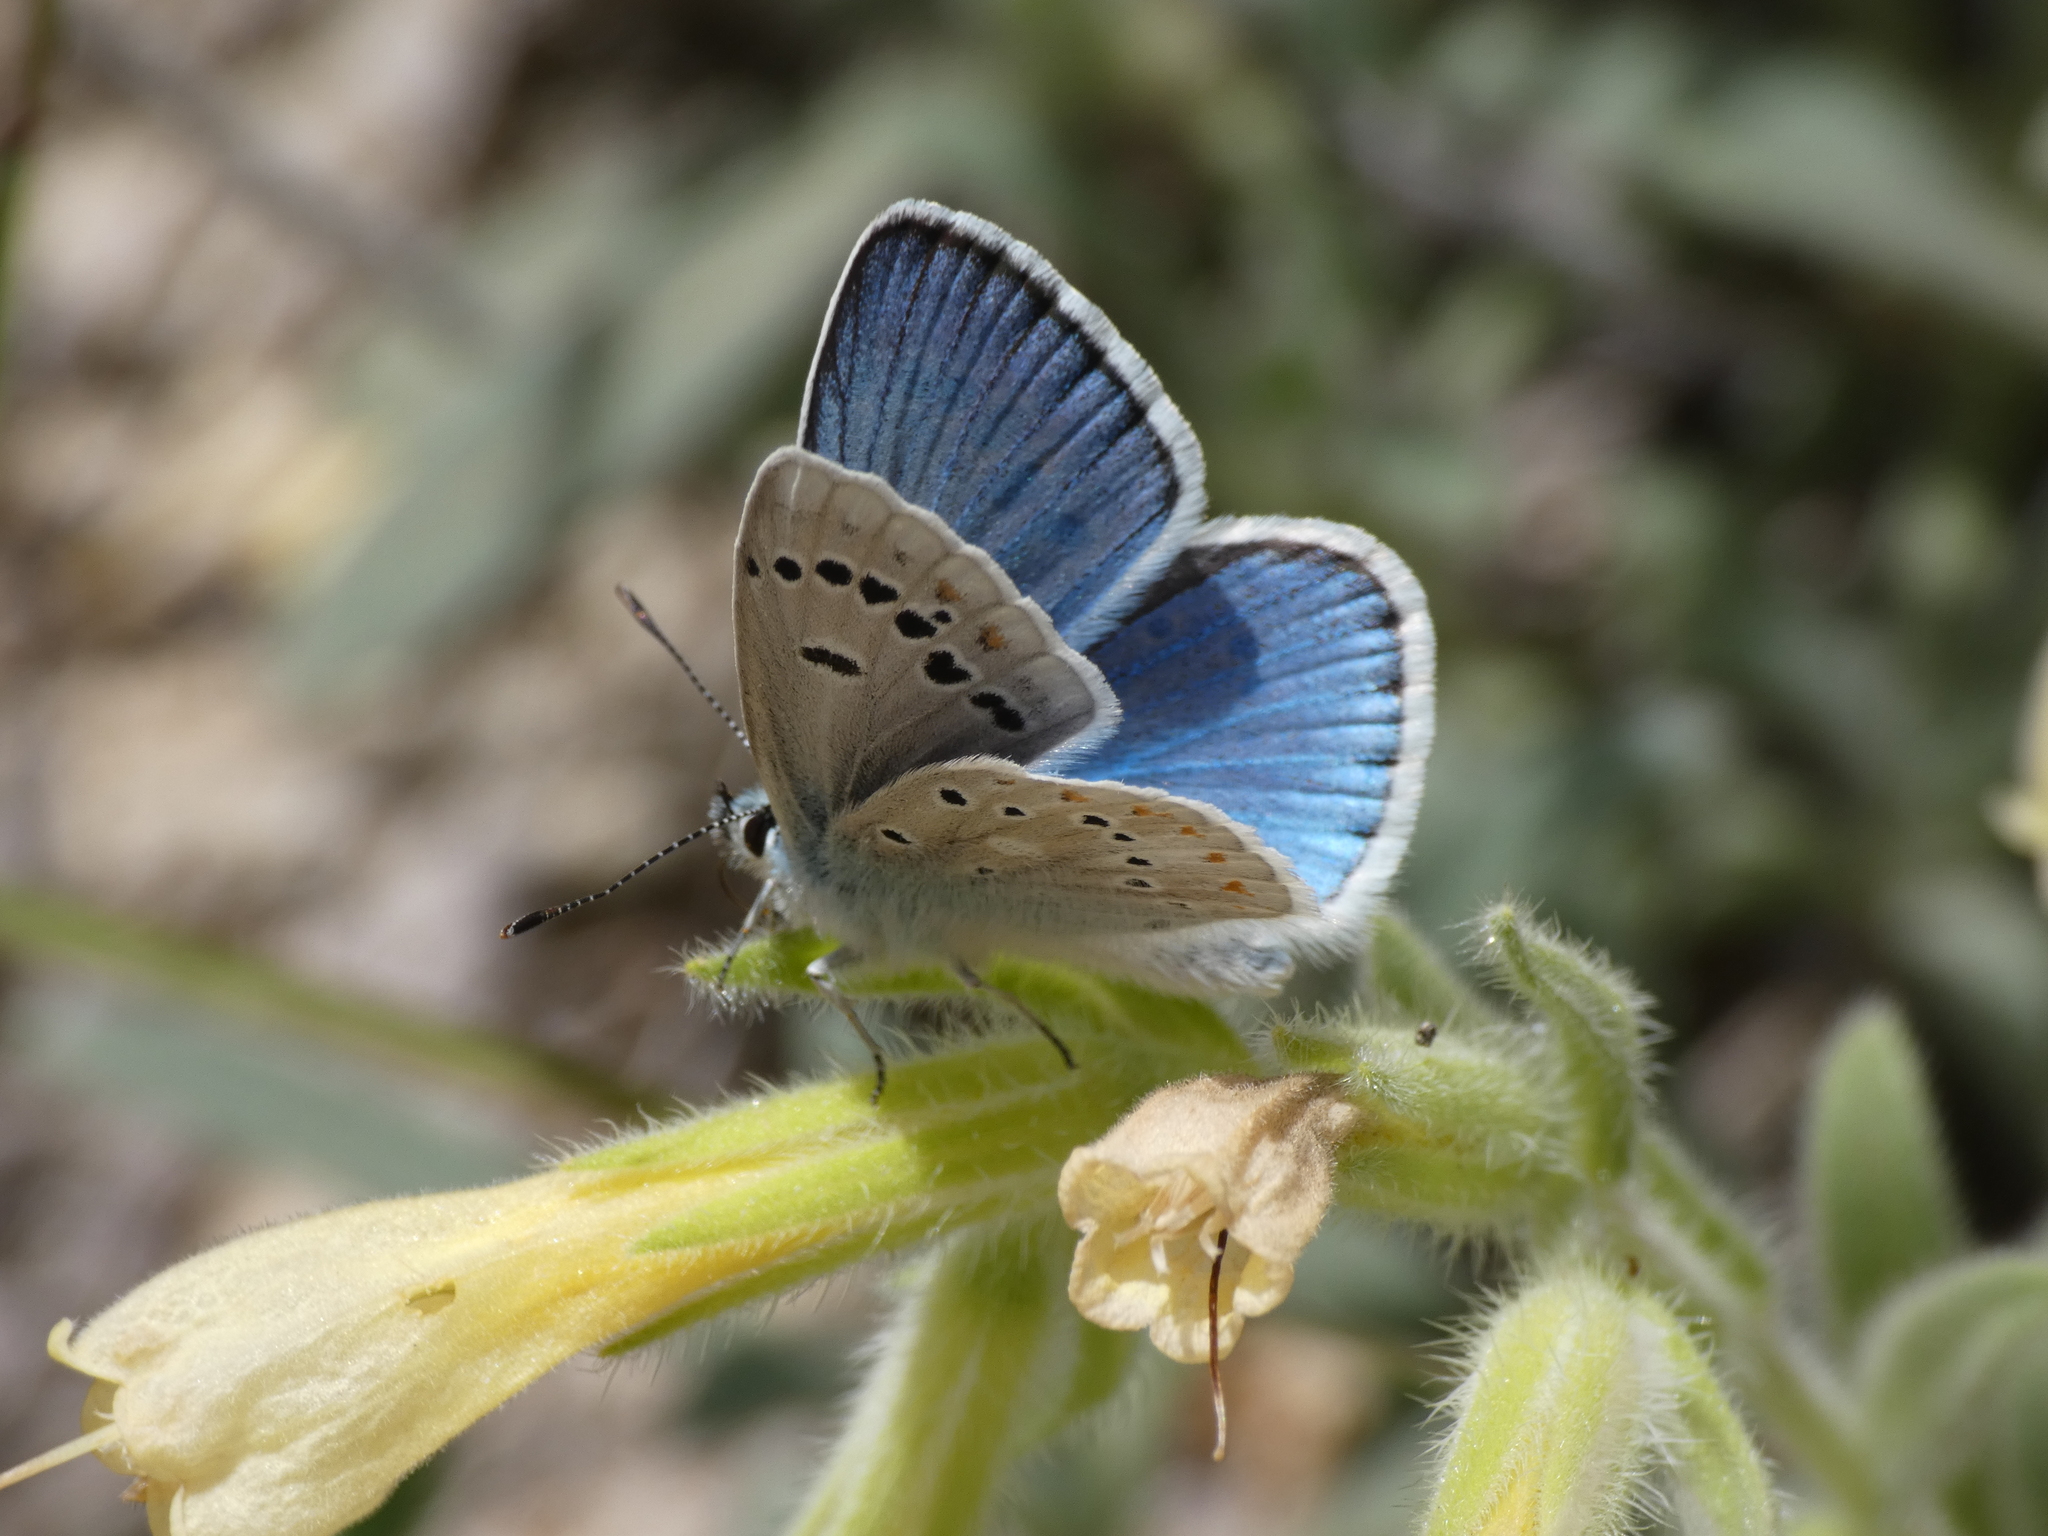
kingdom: Animalia
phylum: Arthropoda
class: Insecta
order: Lepidoptera
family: Lycaenidae
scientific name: Lycaenidae
